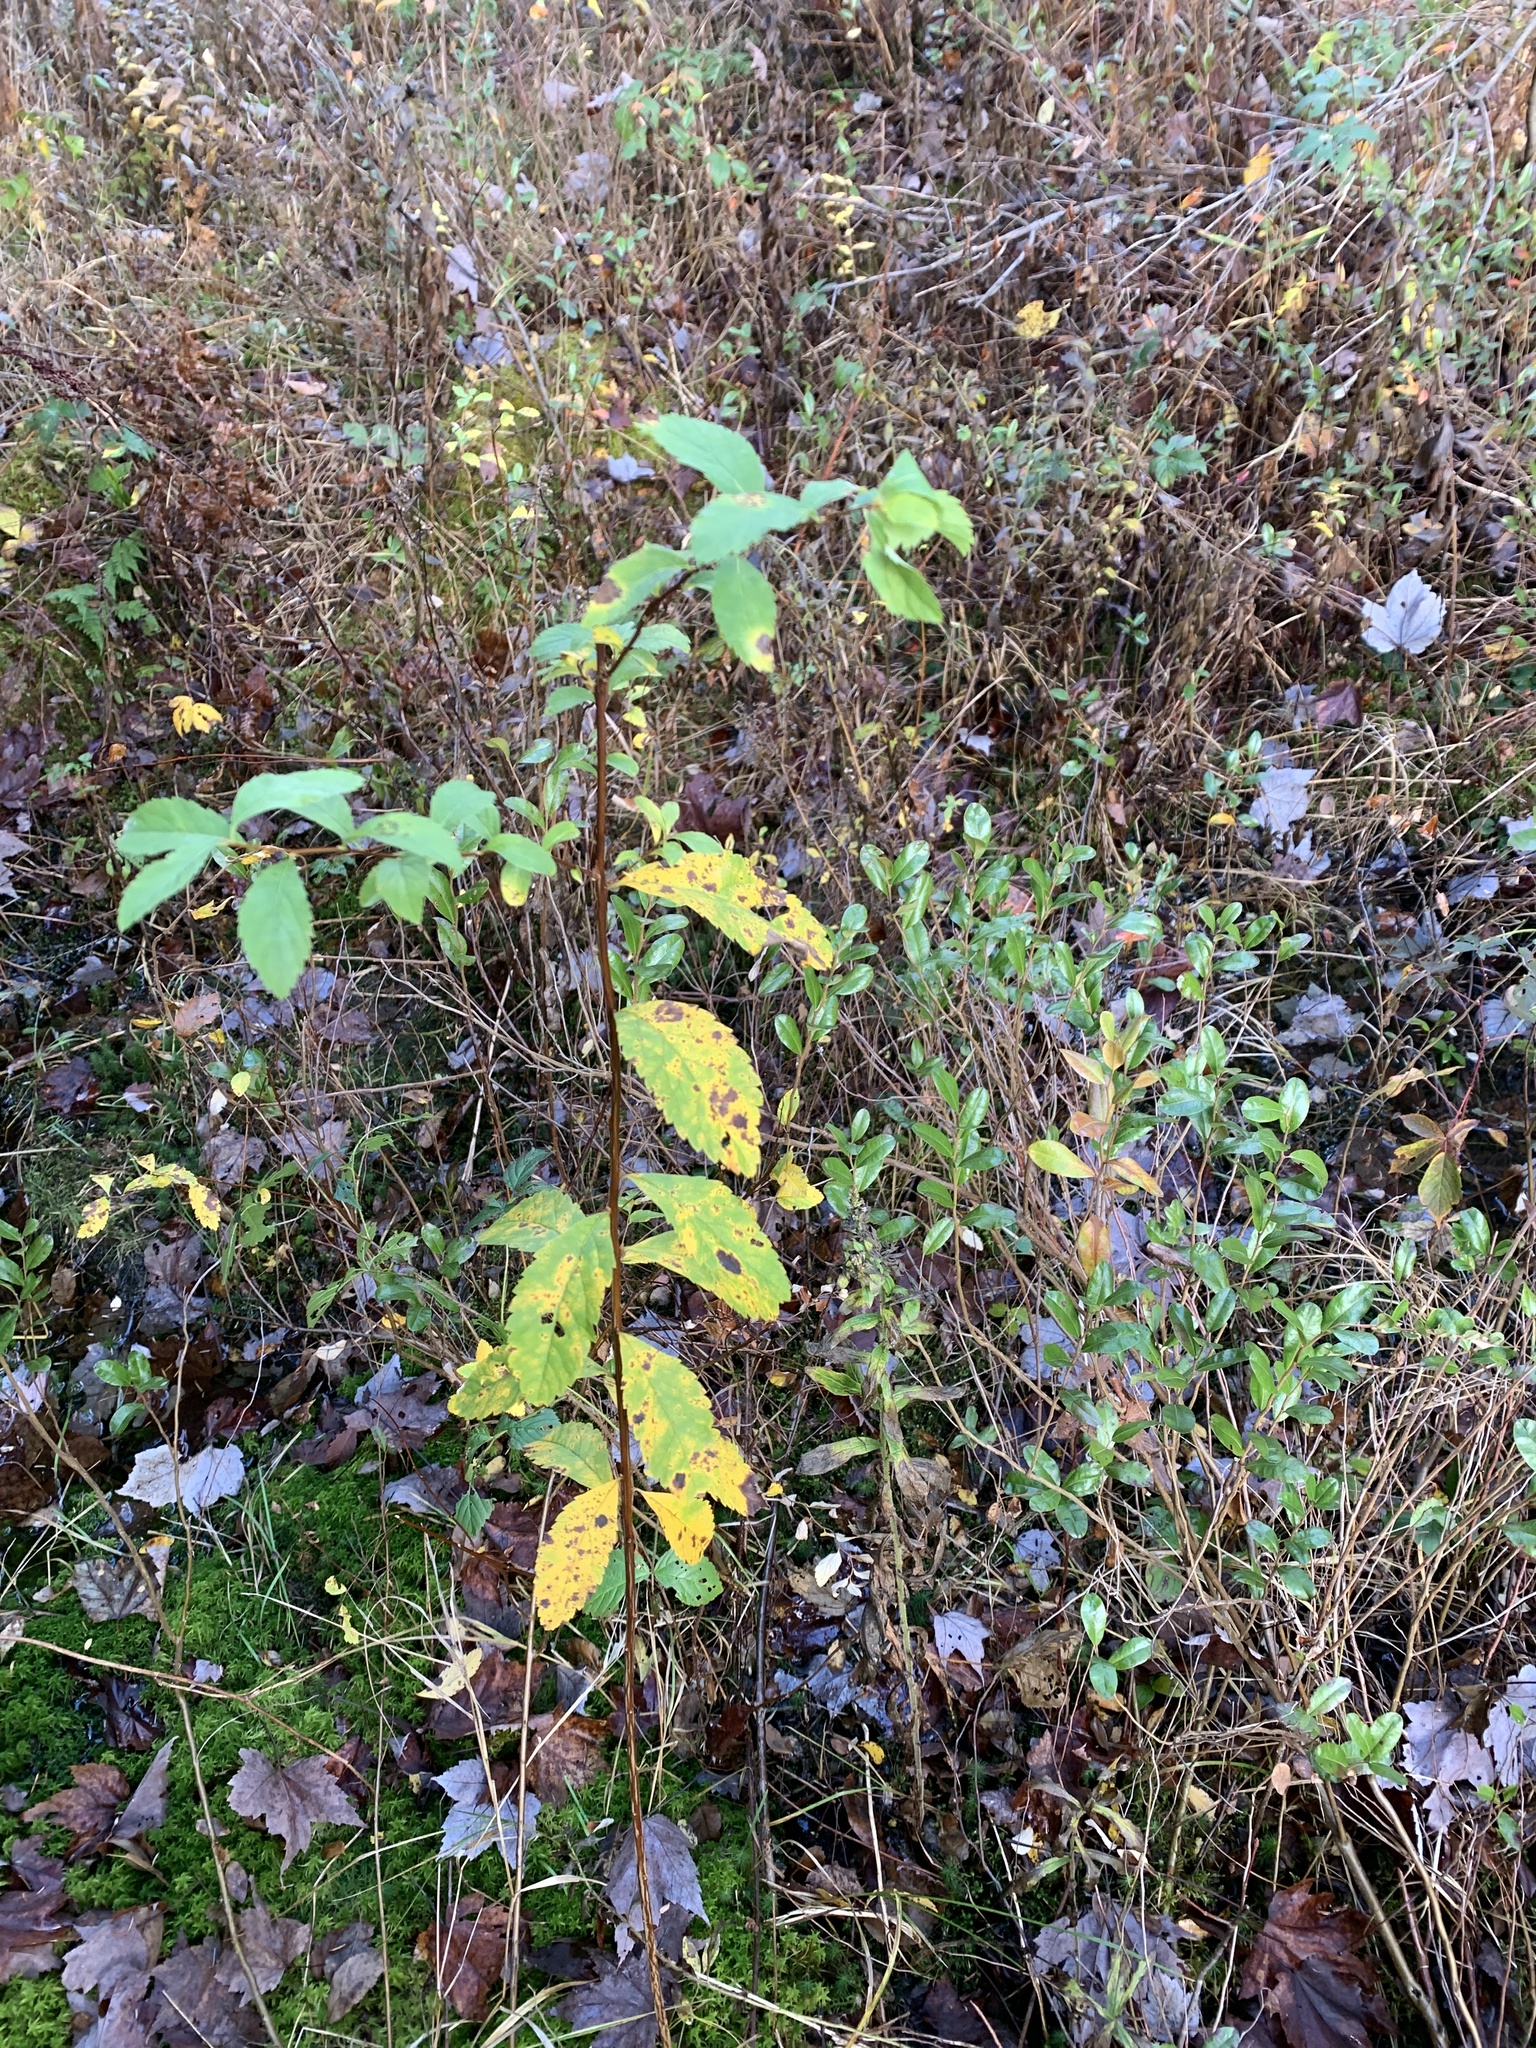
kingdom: Plantae
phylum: Tracheophyta
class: Magnoliopsida
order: Rosales
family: Rosaceae
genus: Spiraea
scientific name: Spiraea alba
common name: Pale bridewort
